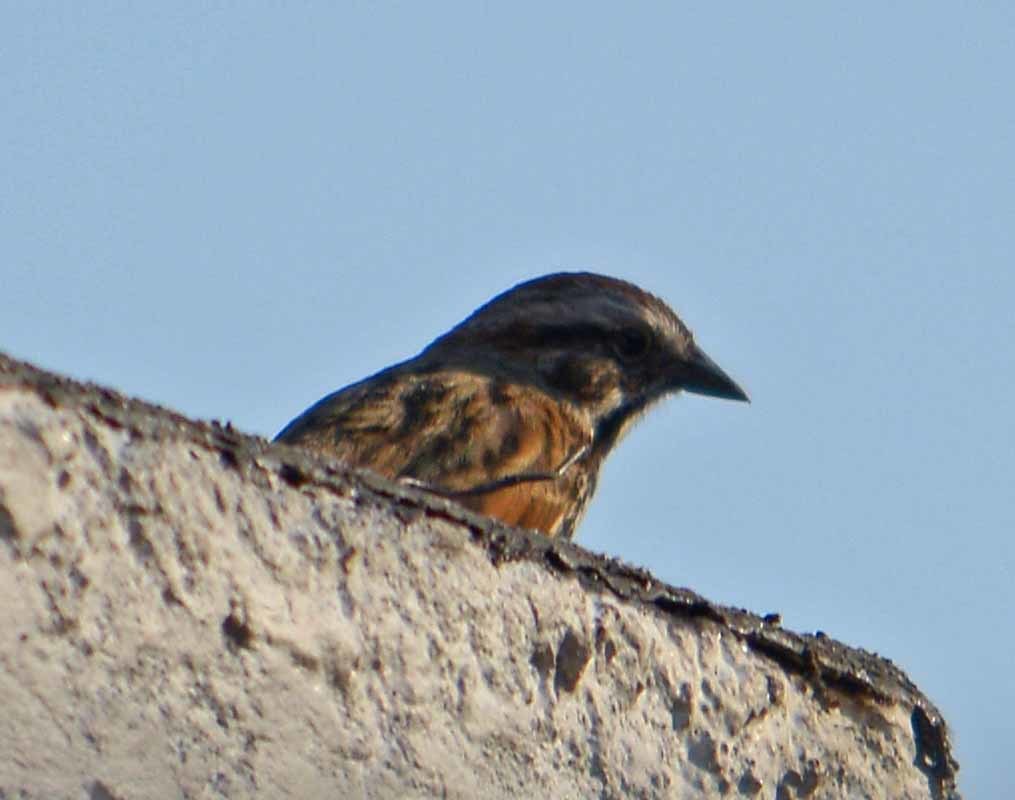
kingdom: Animalia
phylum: Chordata
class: Aves
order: Passeriformes
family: Passerellidae
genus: Melospiza
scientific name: Melospiza melodia
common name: Song sparrow
